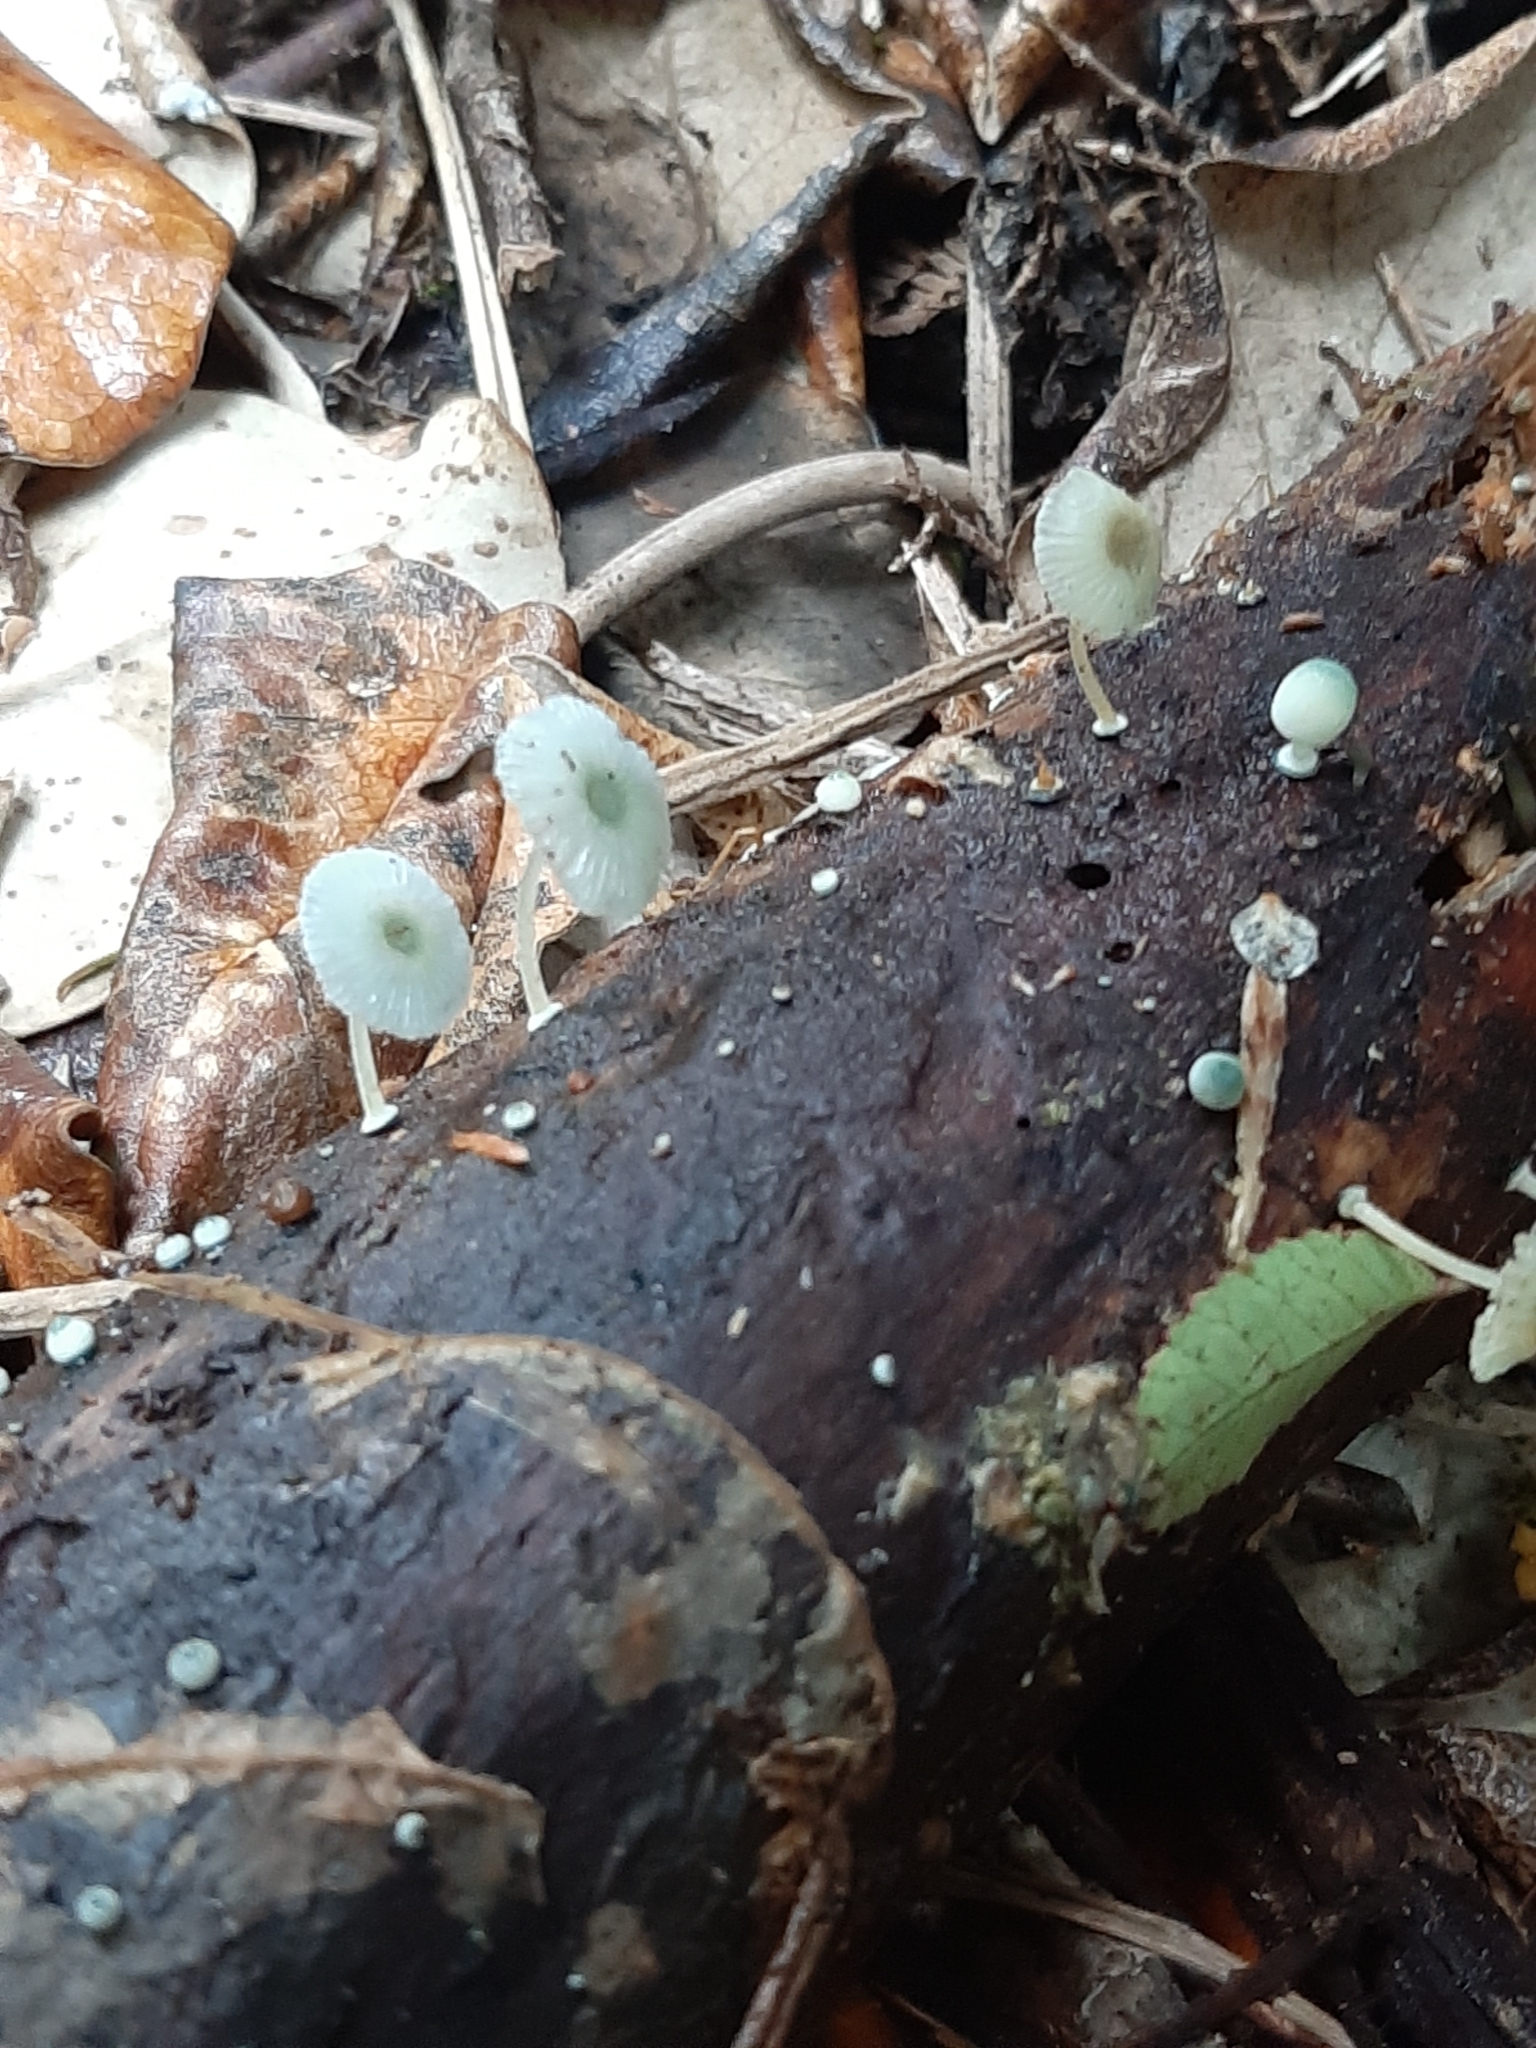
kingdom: Fungi
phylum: Basidiomycota
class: Agaricomycetes
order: Agaricales
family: Mycenaceae
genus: Mycena
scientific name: Mycena interrupta
